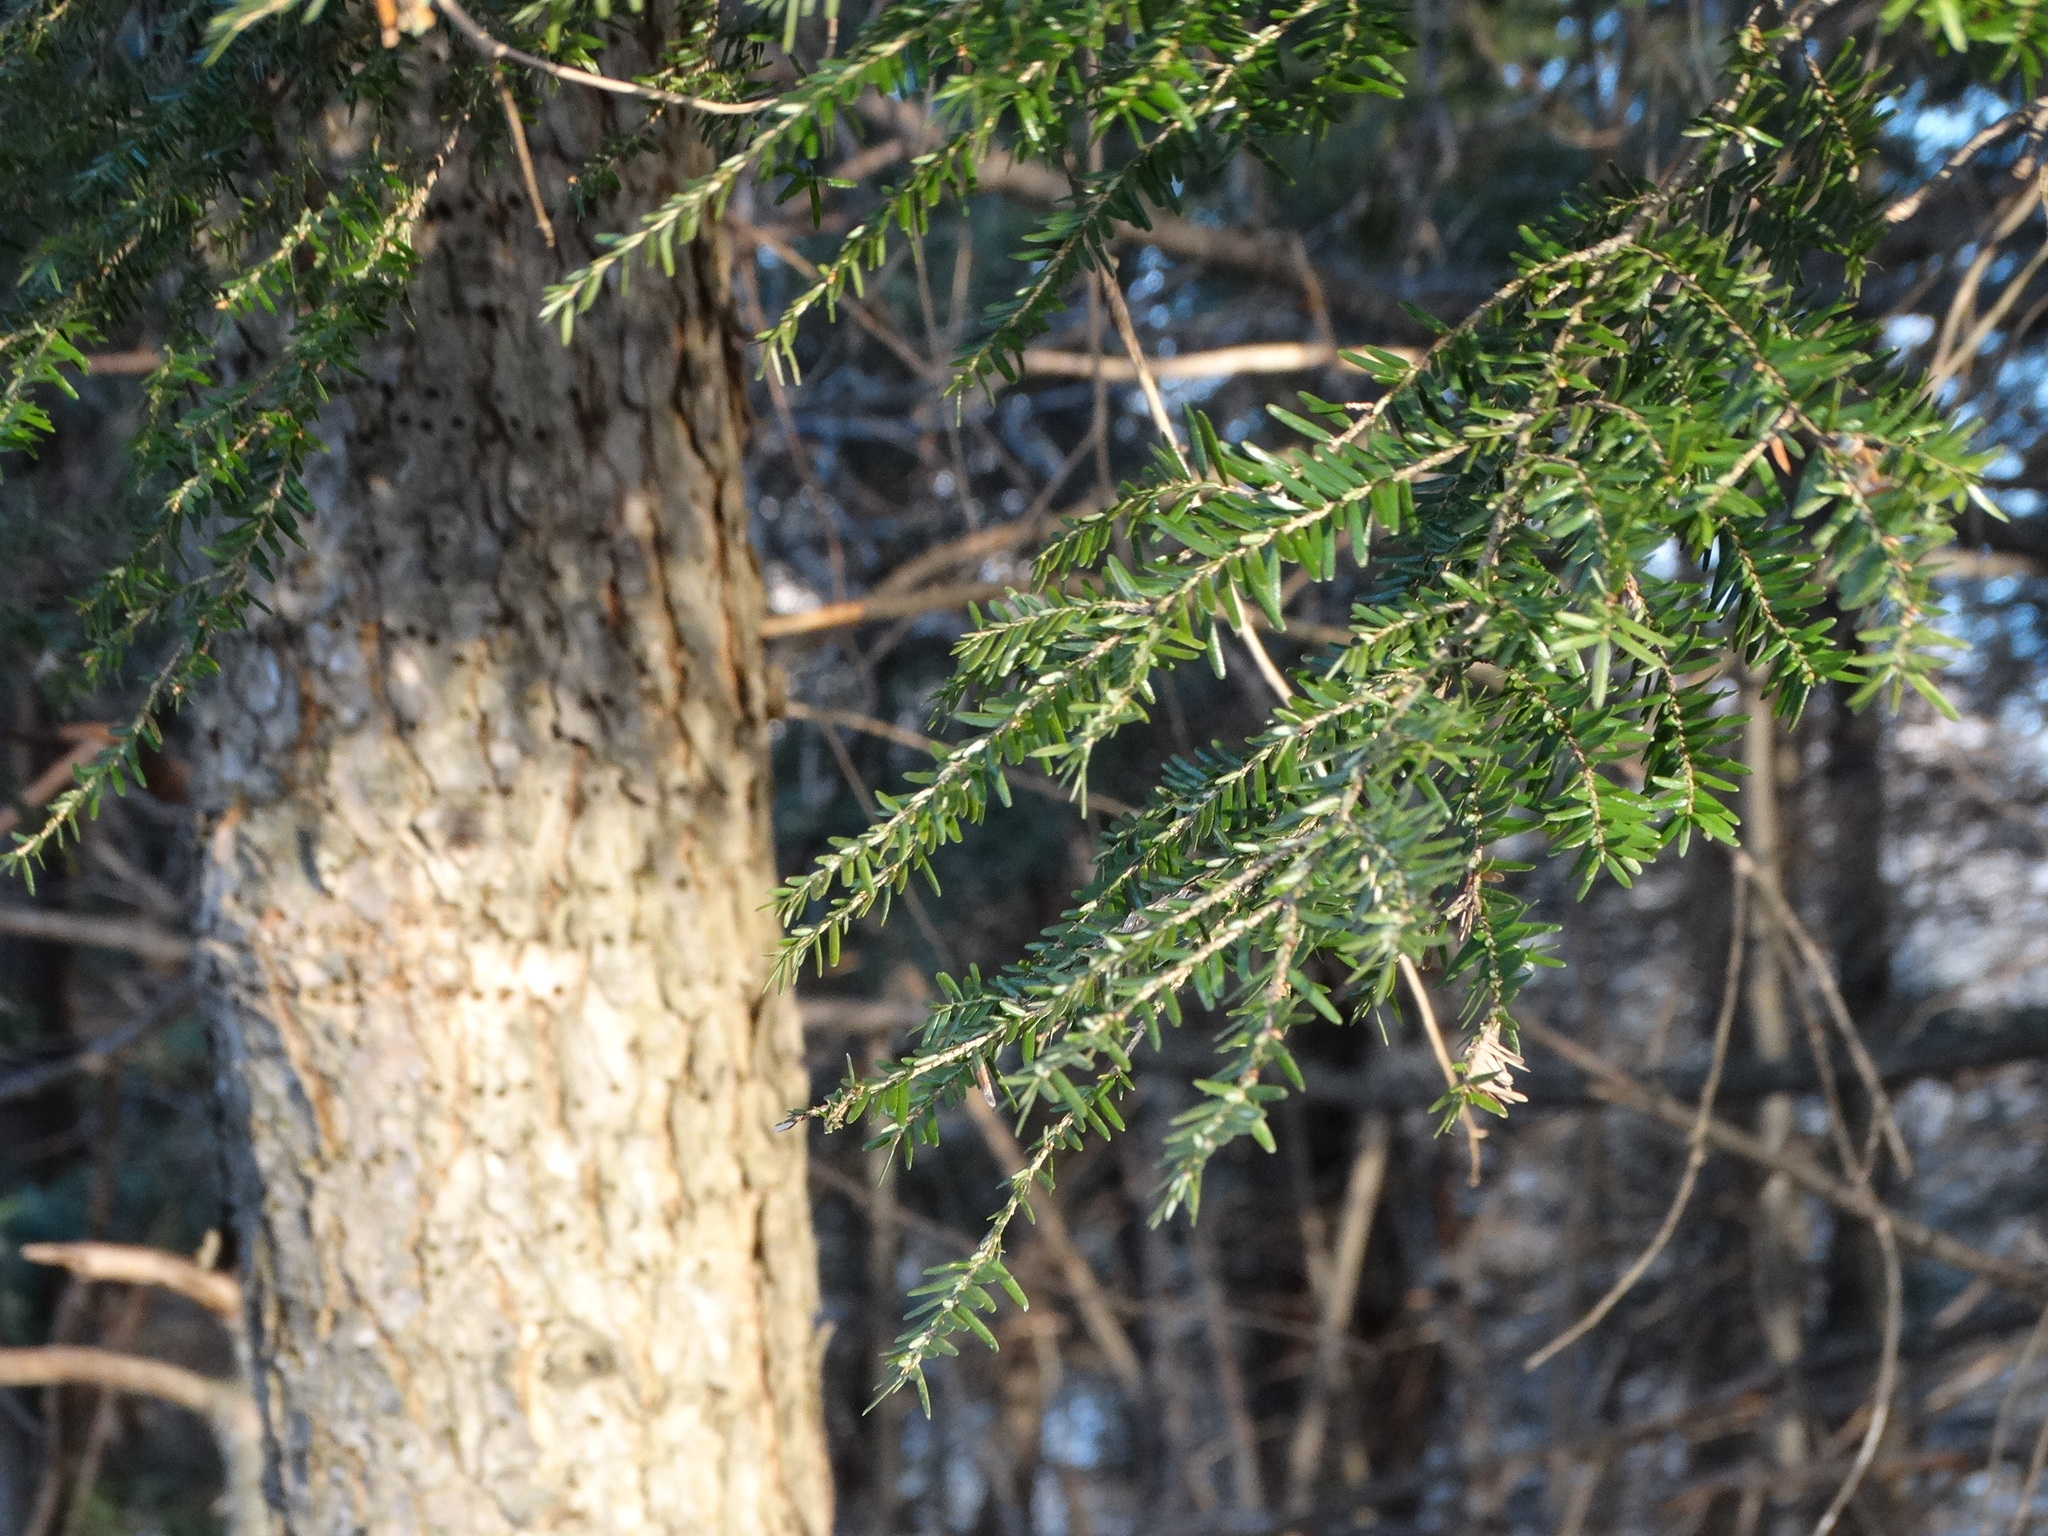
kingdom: Plantae
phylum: Tracheophyta
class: Pinopsida
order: Pinales
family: Pinaceae
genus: Tsuga
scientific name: Tsuga canadensis
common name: Eastern hemlock
